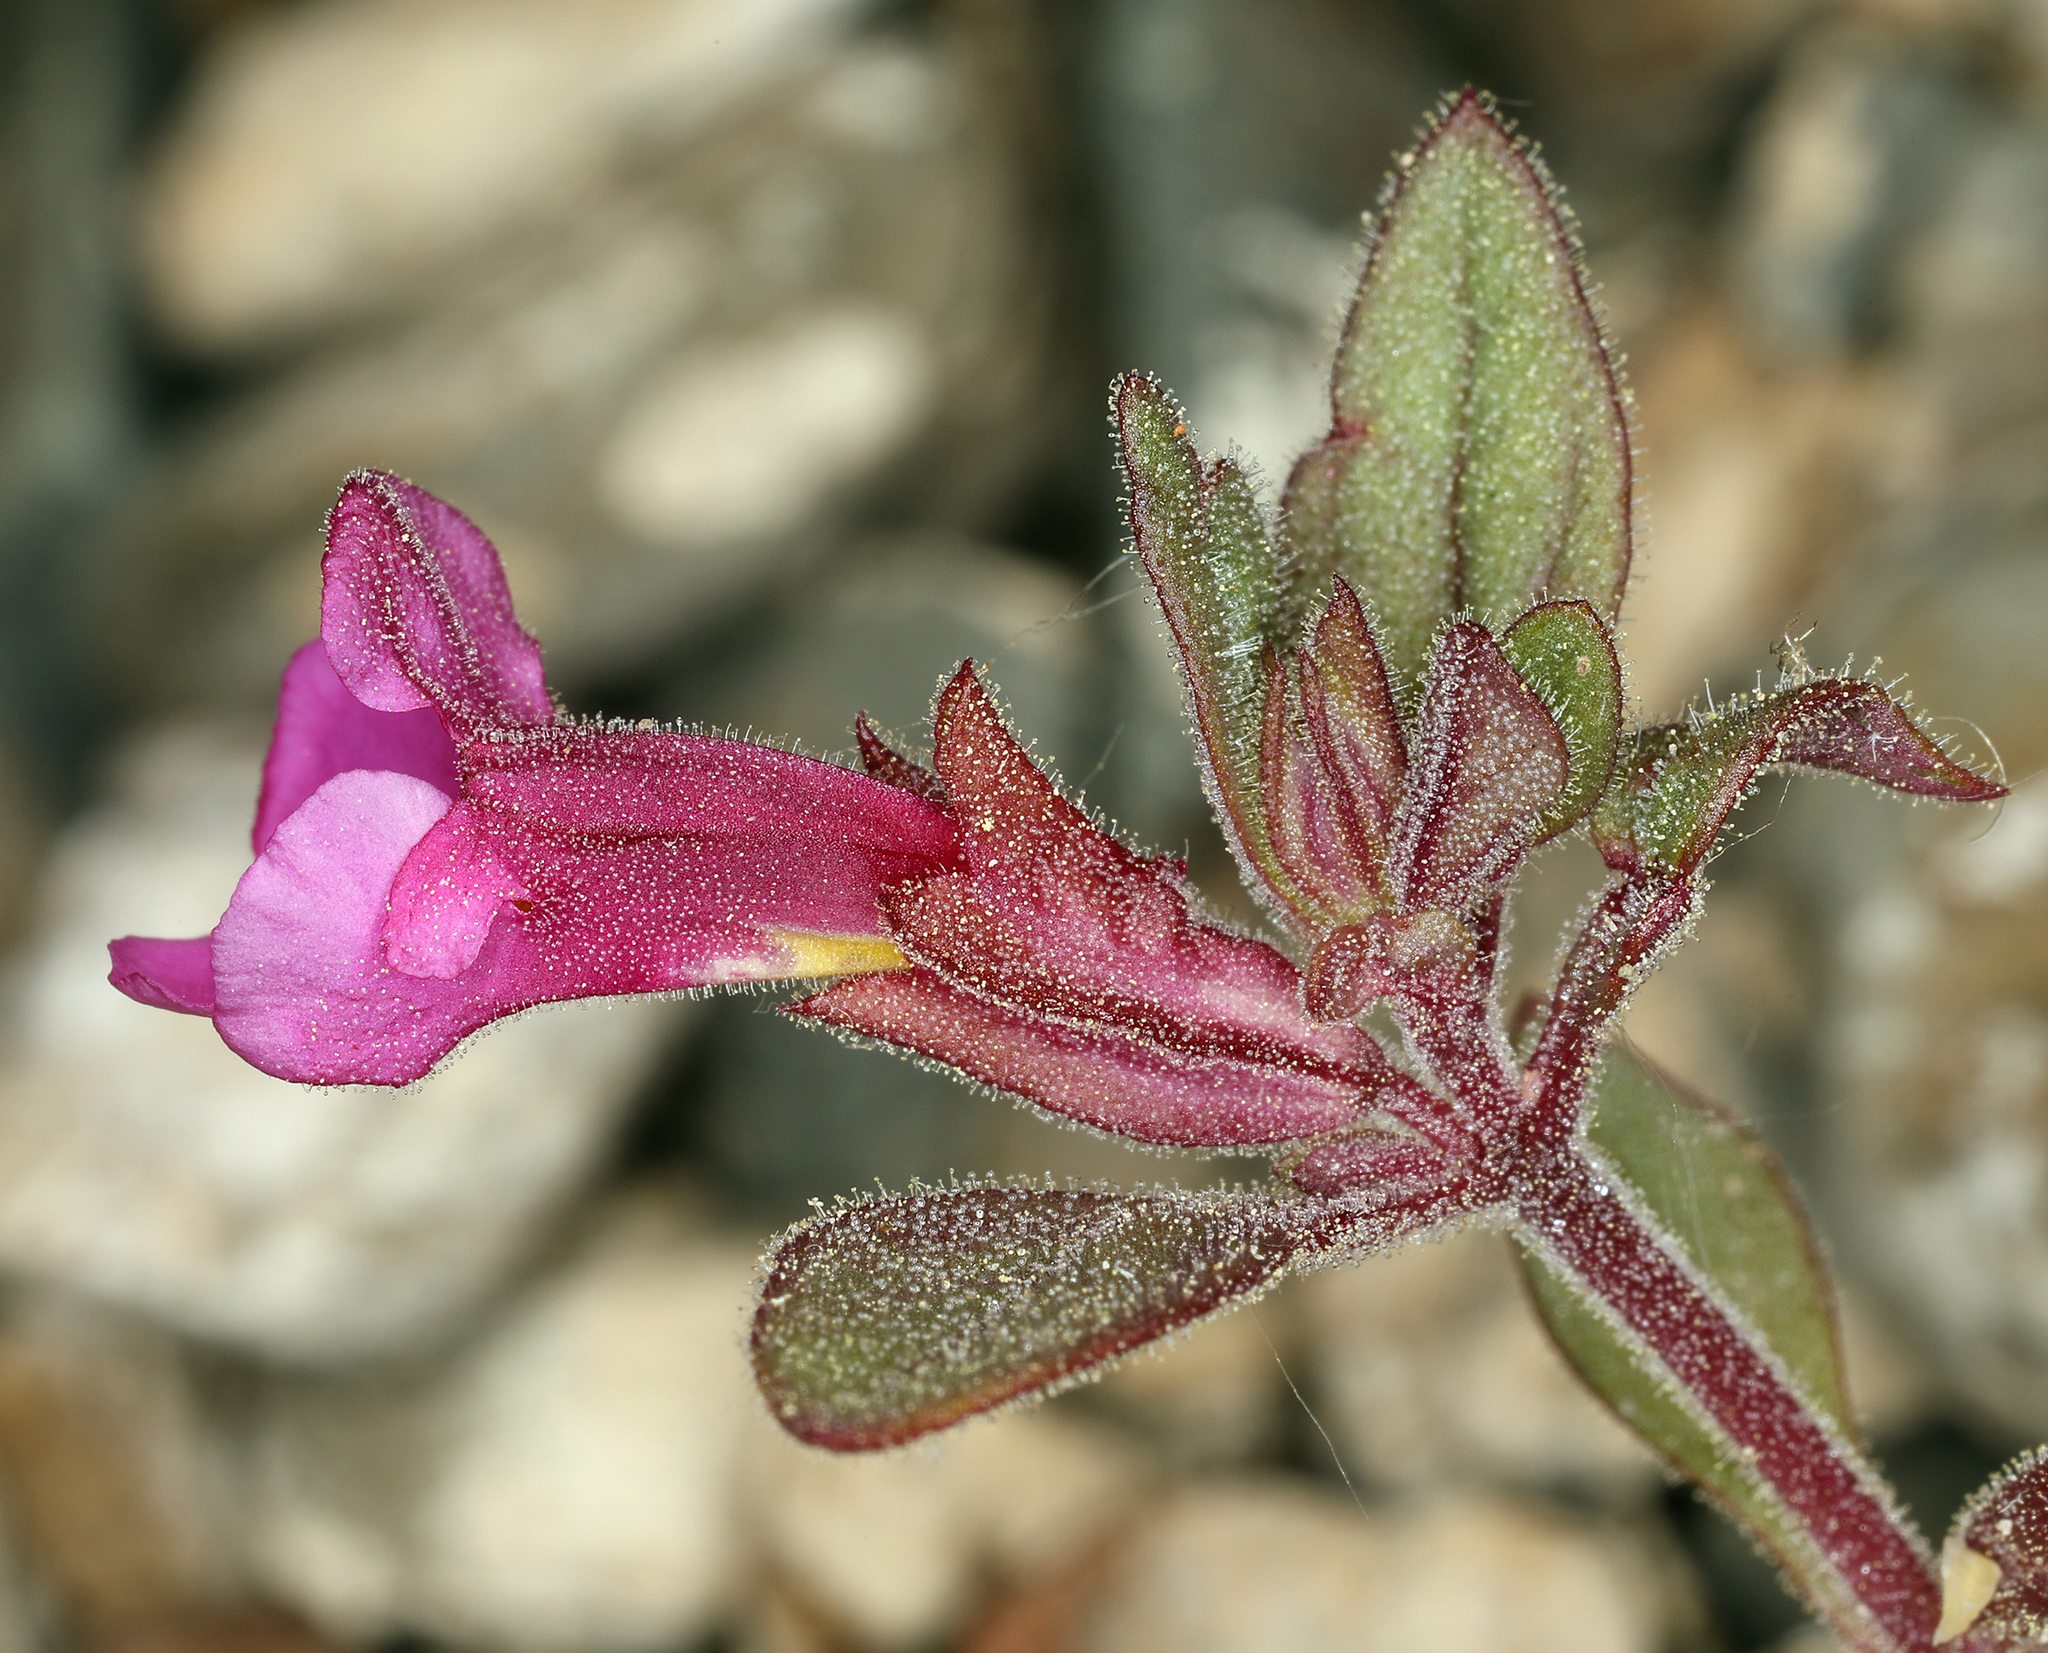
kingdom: Plantae
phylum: Tracheophyta
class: Magnoliopsida
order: Lamiales
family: Phrymaceae
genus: Diplacus
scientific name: Diplacus parryi
